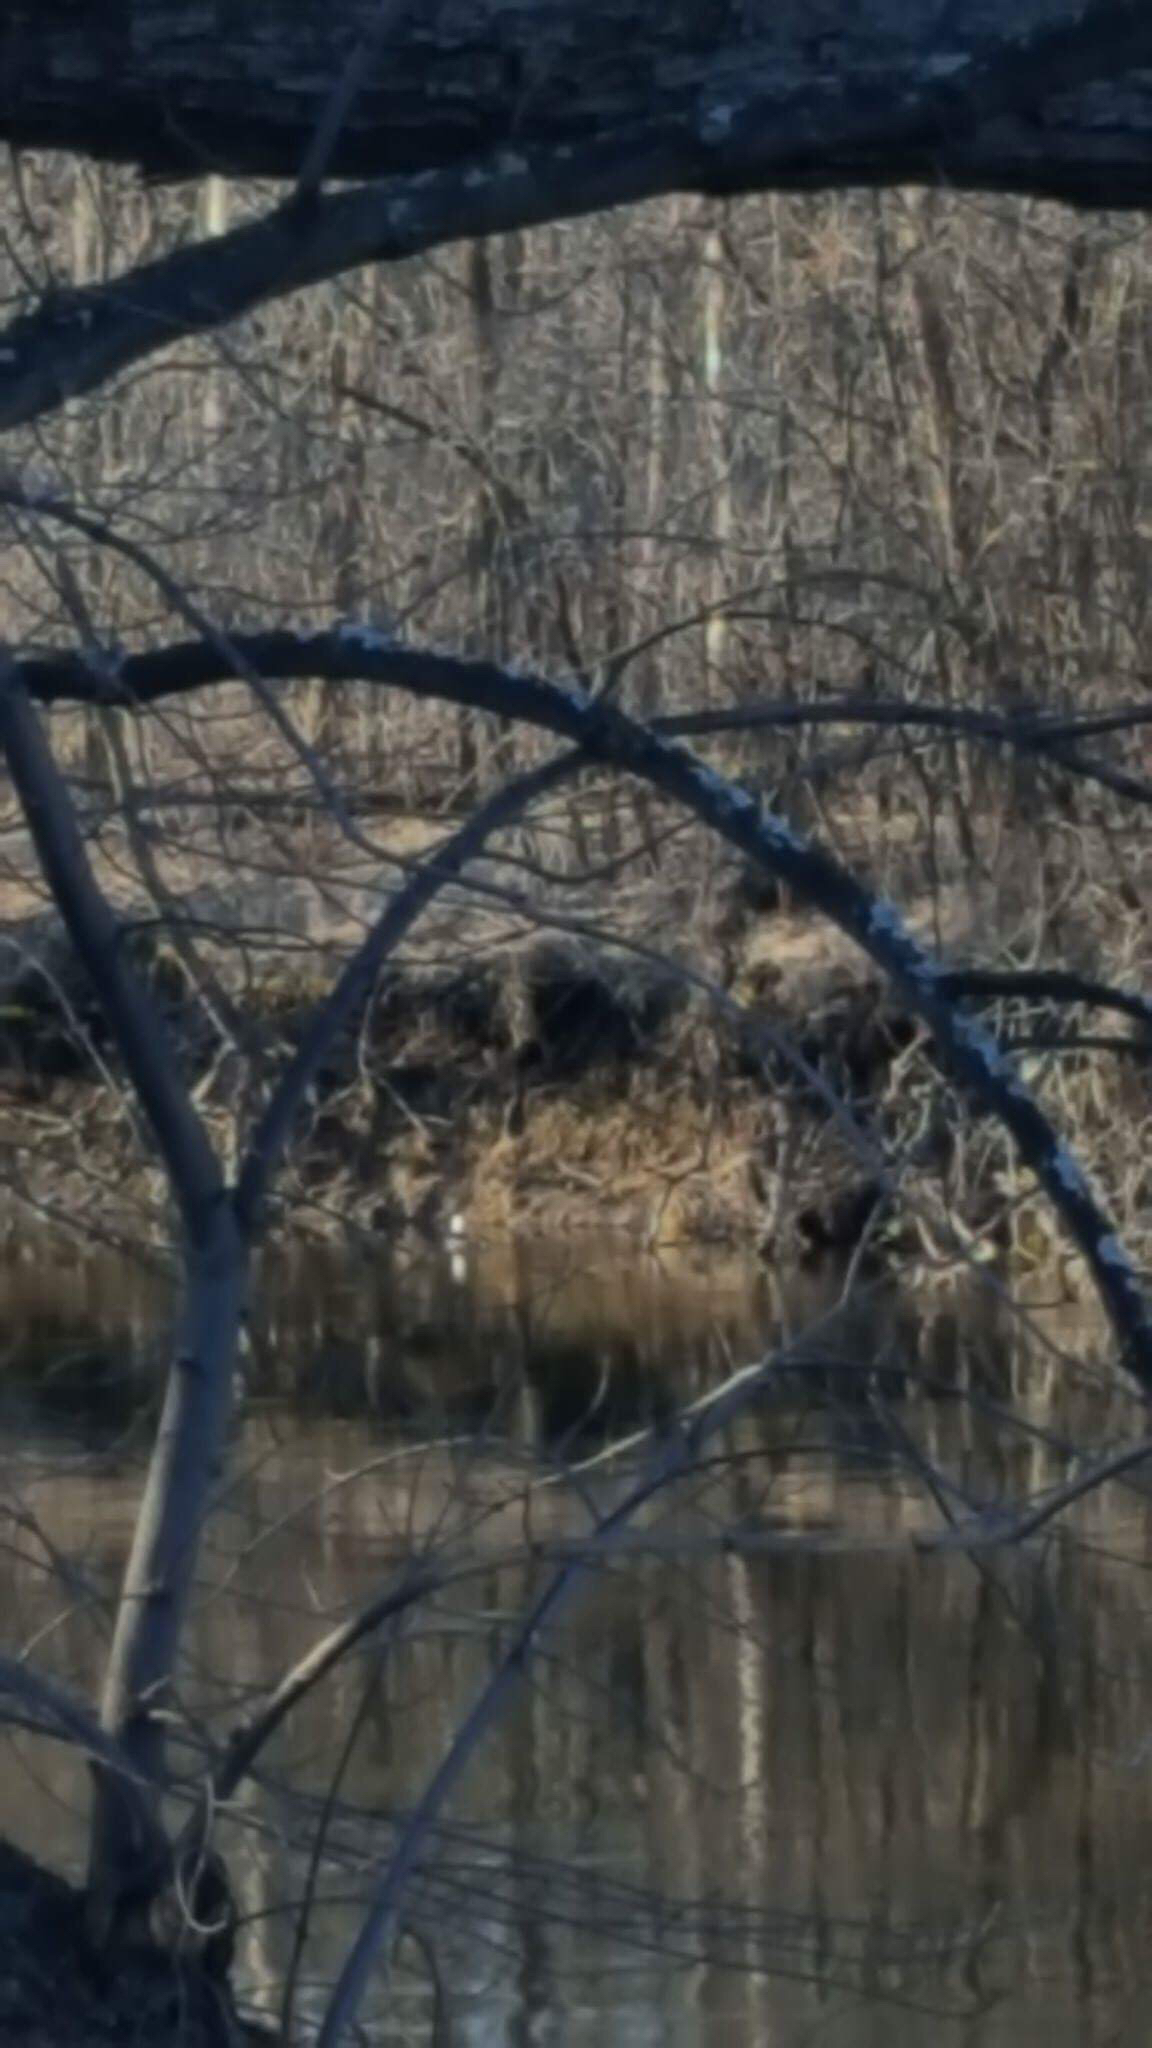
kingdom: Animalia
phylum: Chordata
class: Aves
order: Anseriformes
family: Anatidae
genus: Lophodytes
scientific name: Lophodytes cucullatus
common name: Hooded merganser
